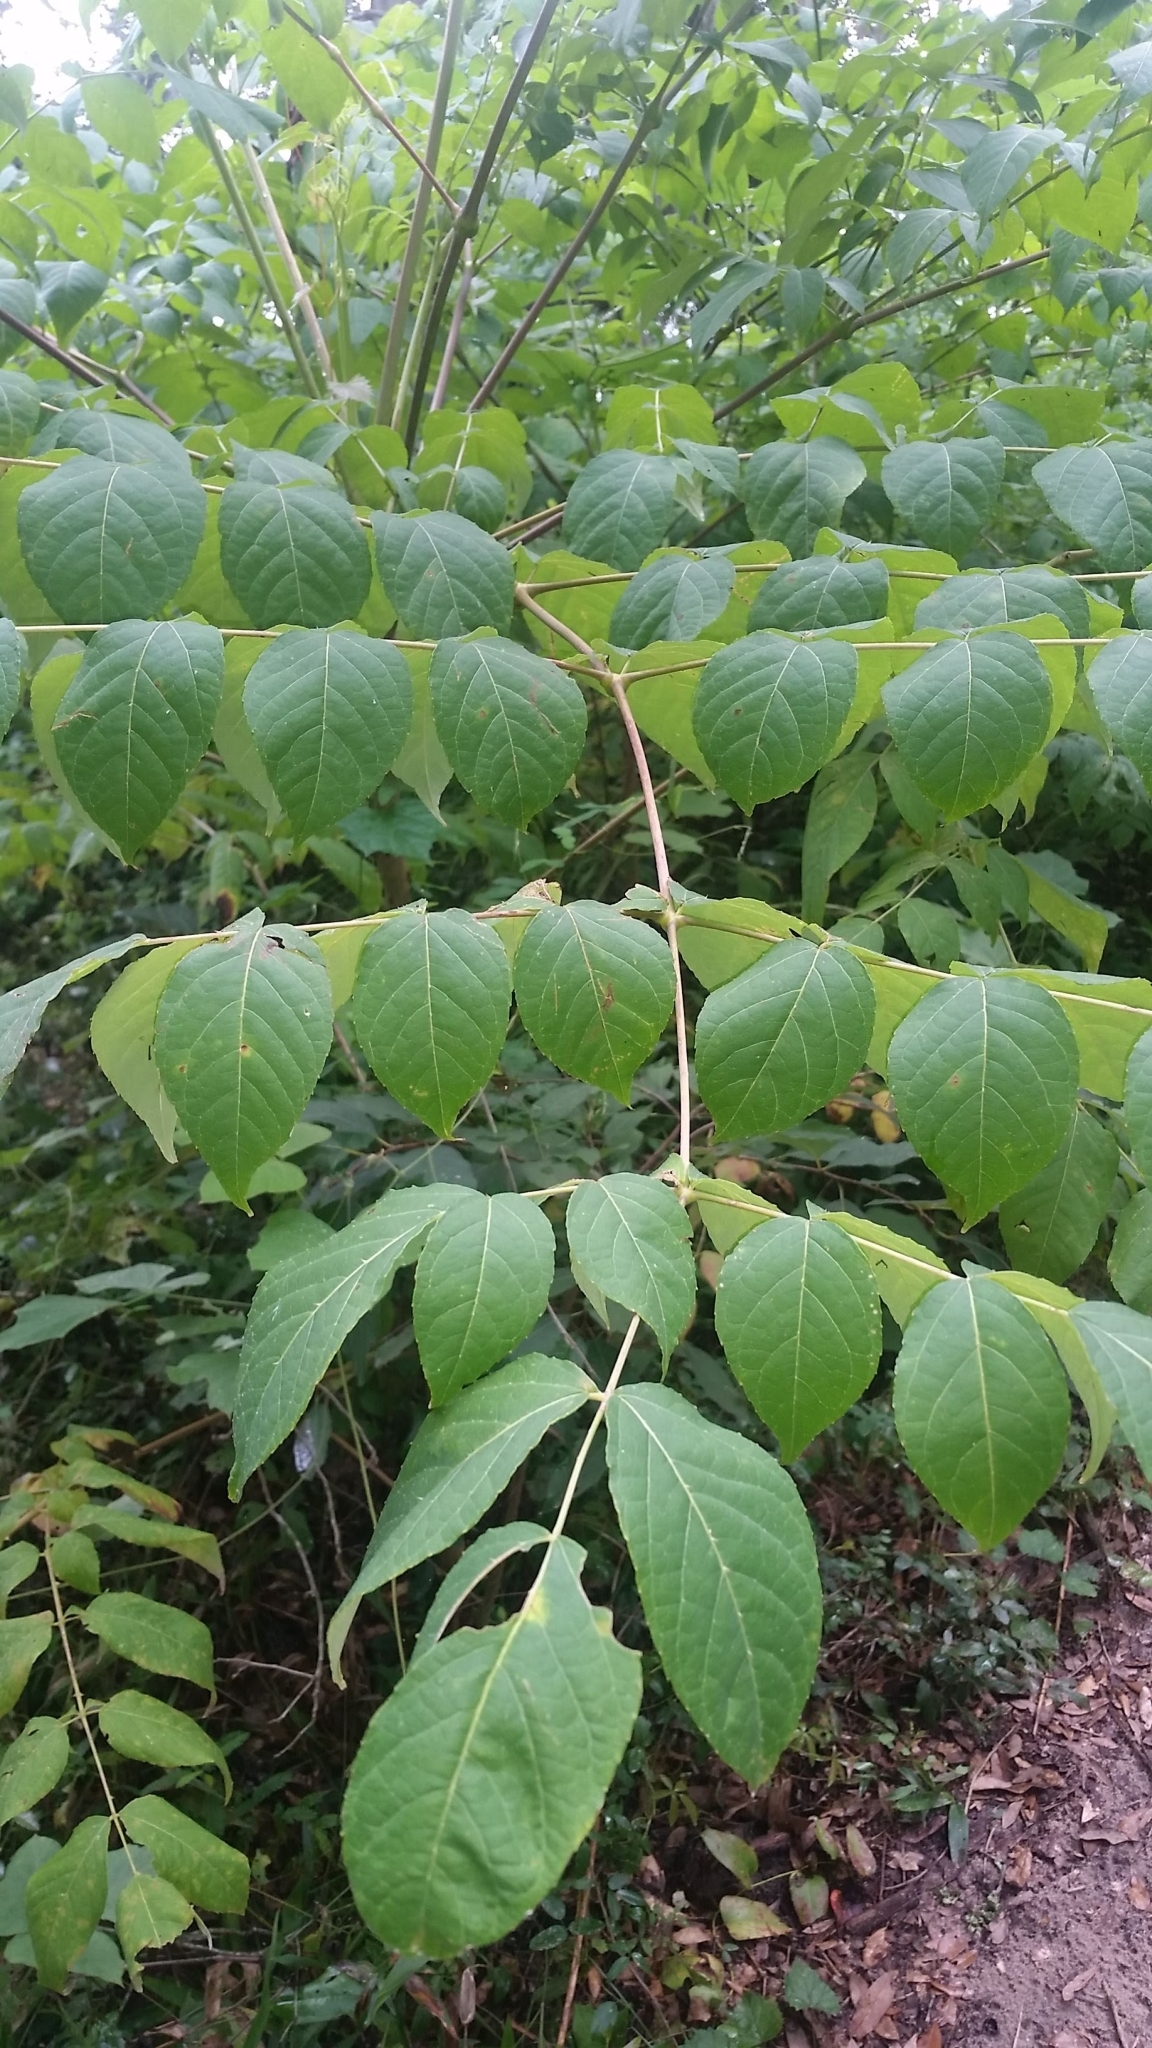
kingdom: Plantae
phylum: Tracheophyta
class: Magnoliopsida
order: Apiales
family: Araliaceae
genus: Aralia
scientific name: Aralia spinosa
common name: Hercules'-club
